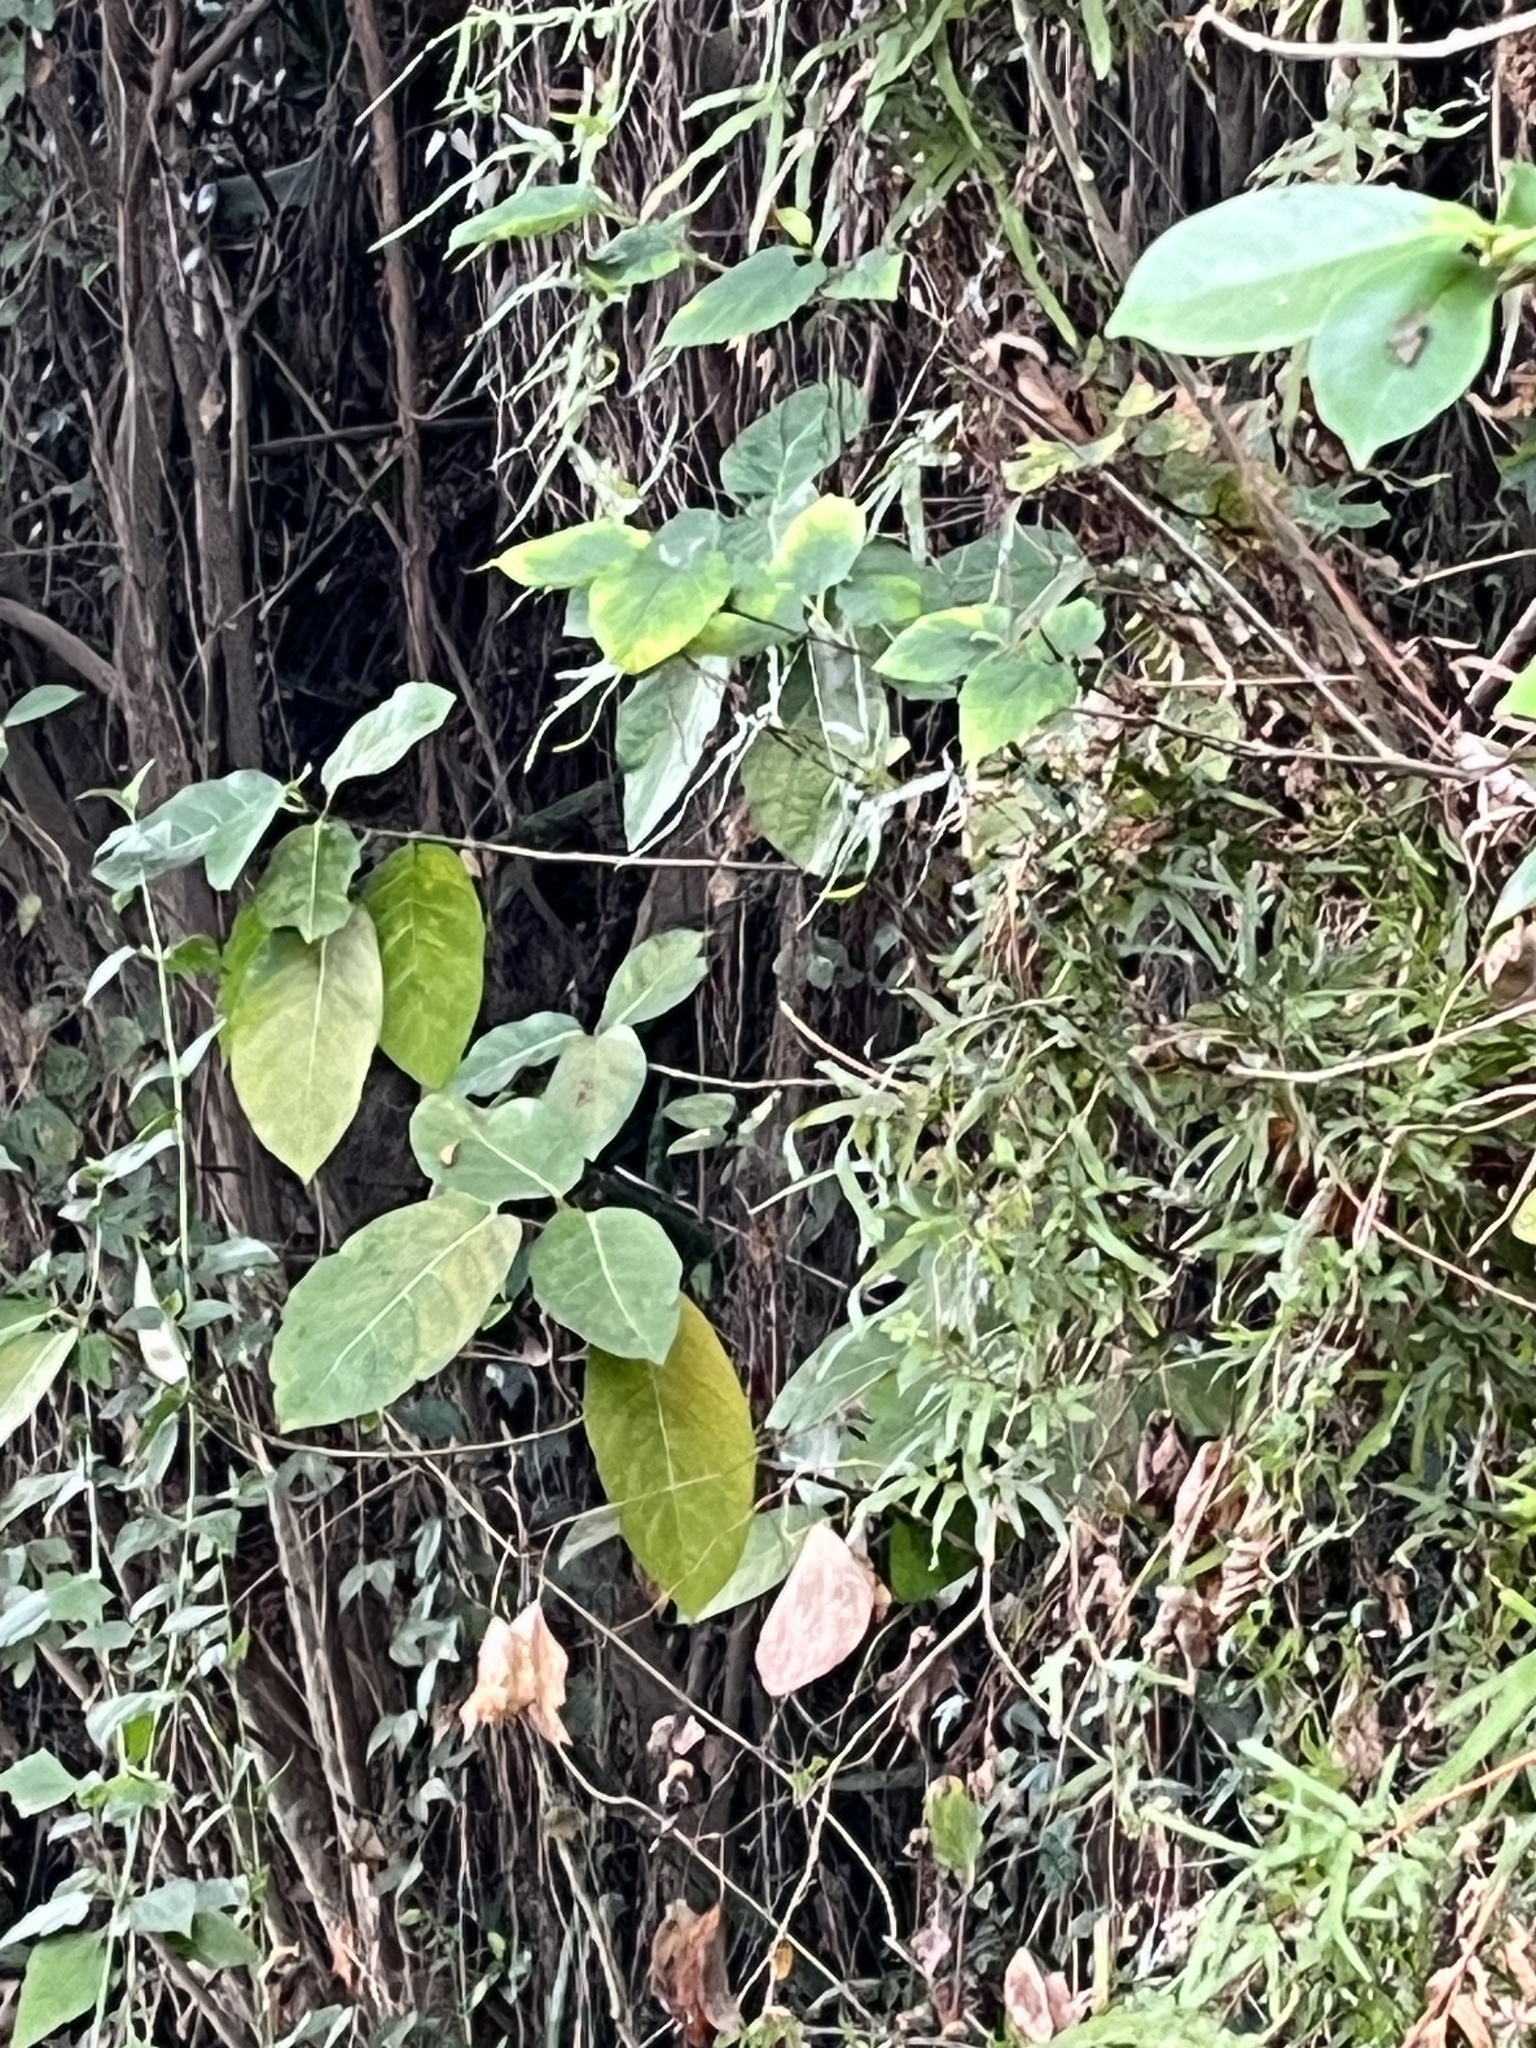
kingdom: Animalia
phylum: Chordata
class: Squamata
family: Viperidae
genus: Trimeresurus
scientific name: Trimeresurus stejnegeri
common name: Chen’s bamboo pit viper
